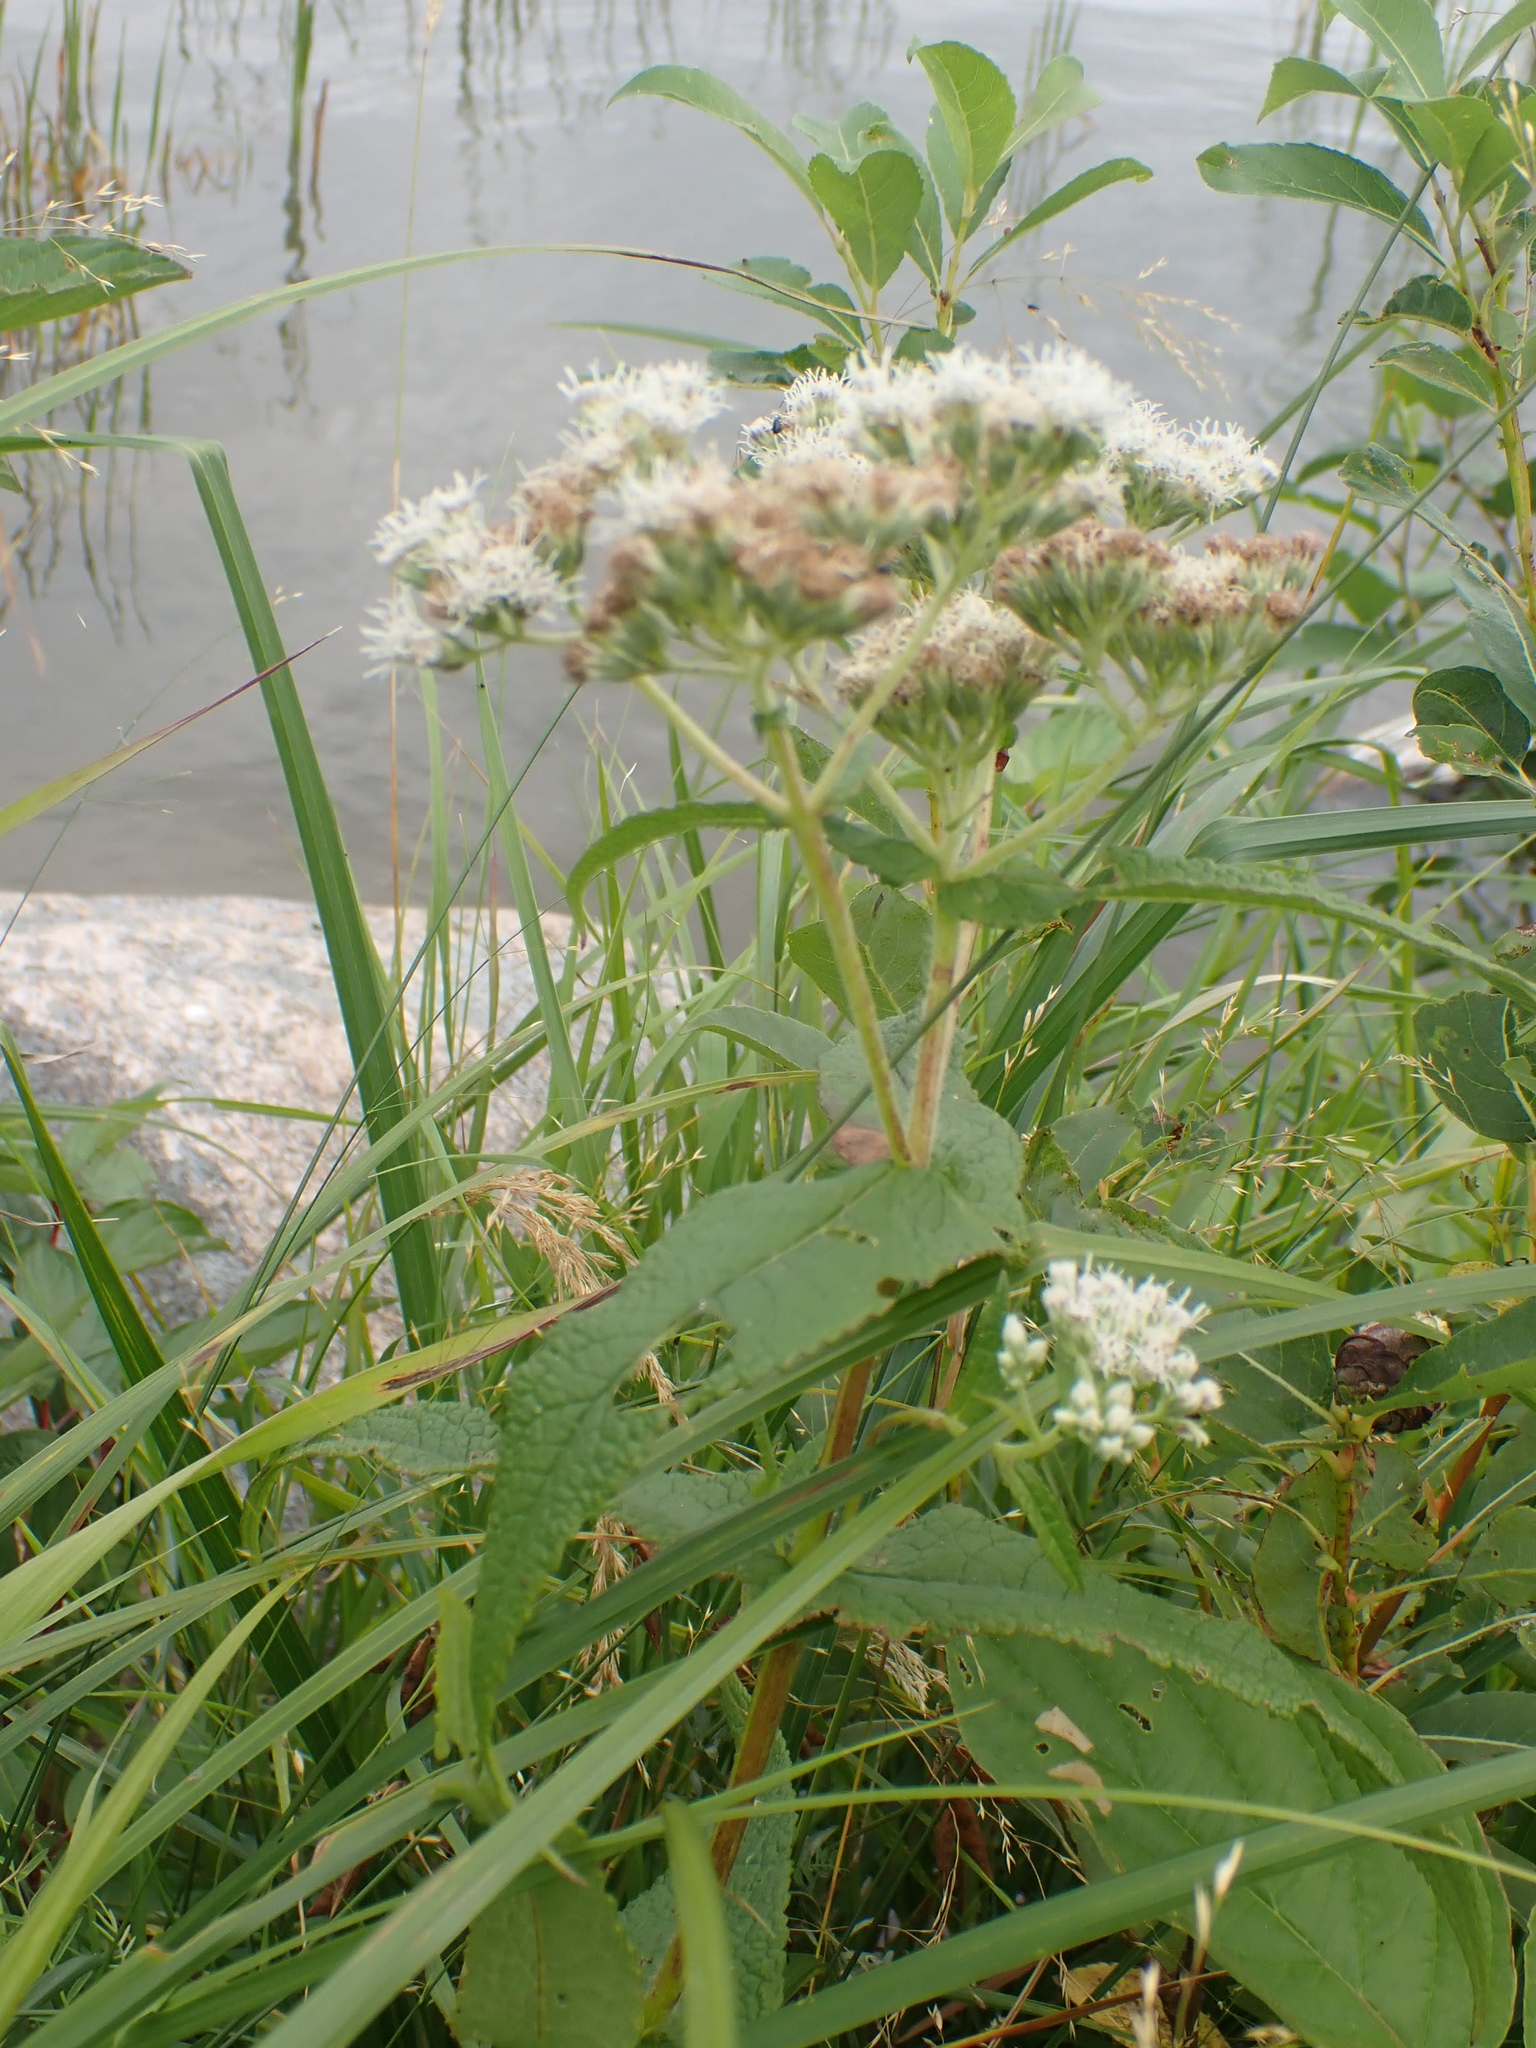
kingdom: Plantae
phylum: Tracheophyta
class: Magnoliopsida
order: Asterales
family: Asteraceae
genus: Eupatorium
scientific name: Eupatorium perfoliatum
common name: Boneset
